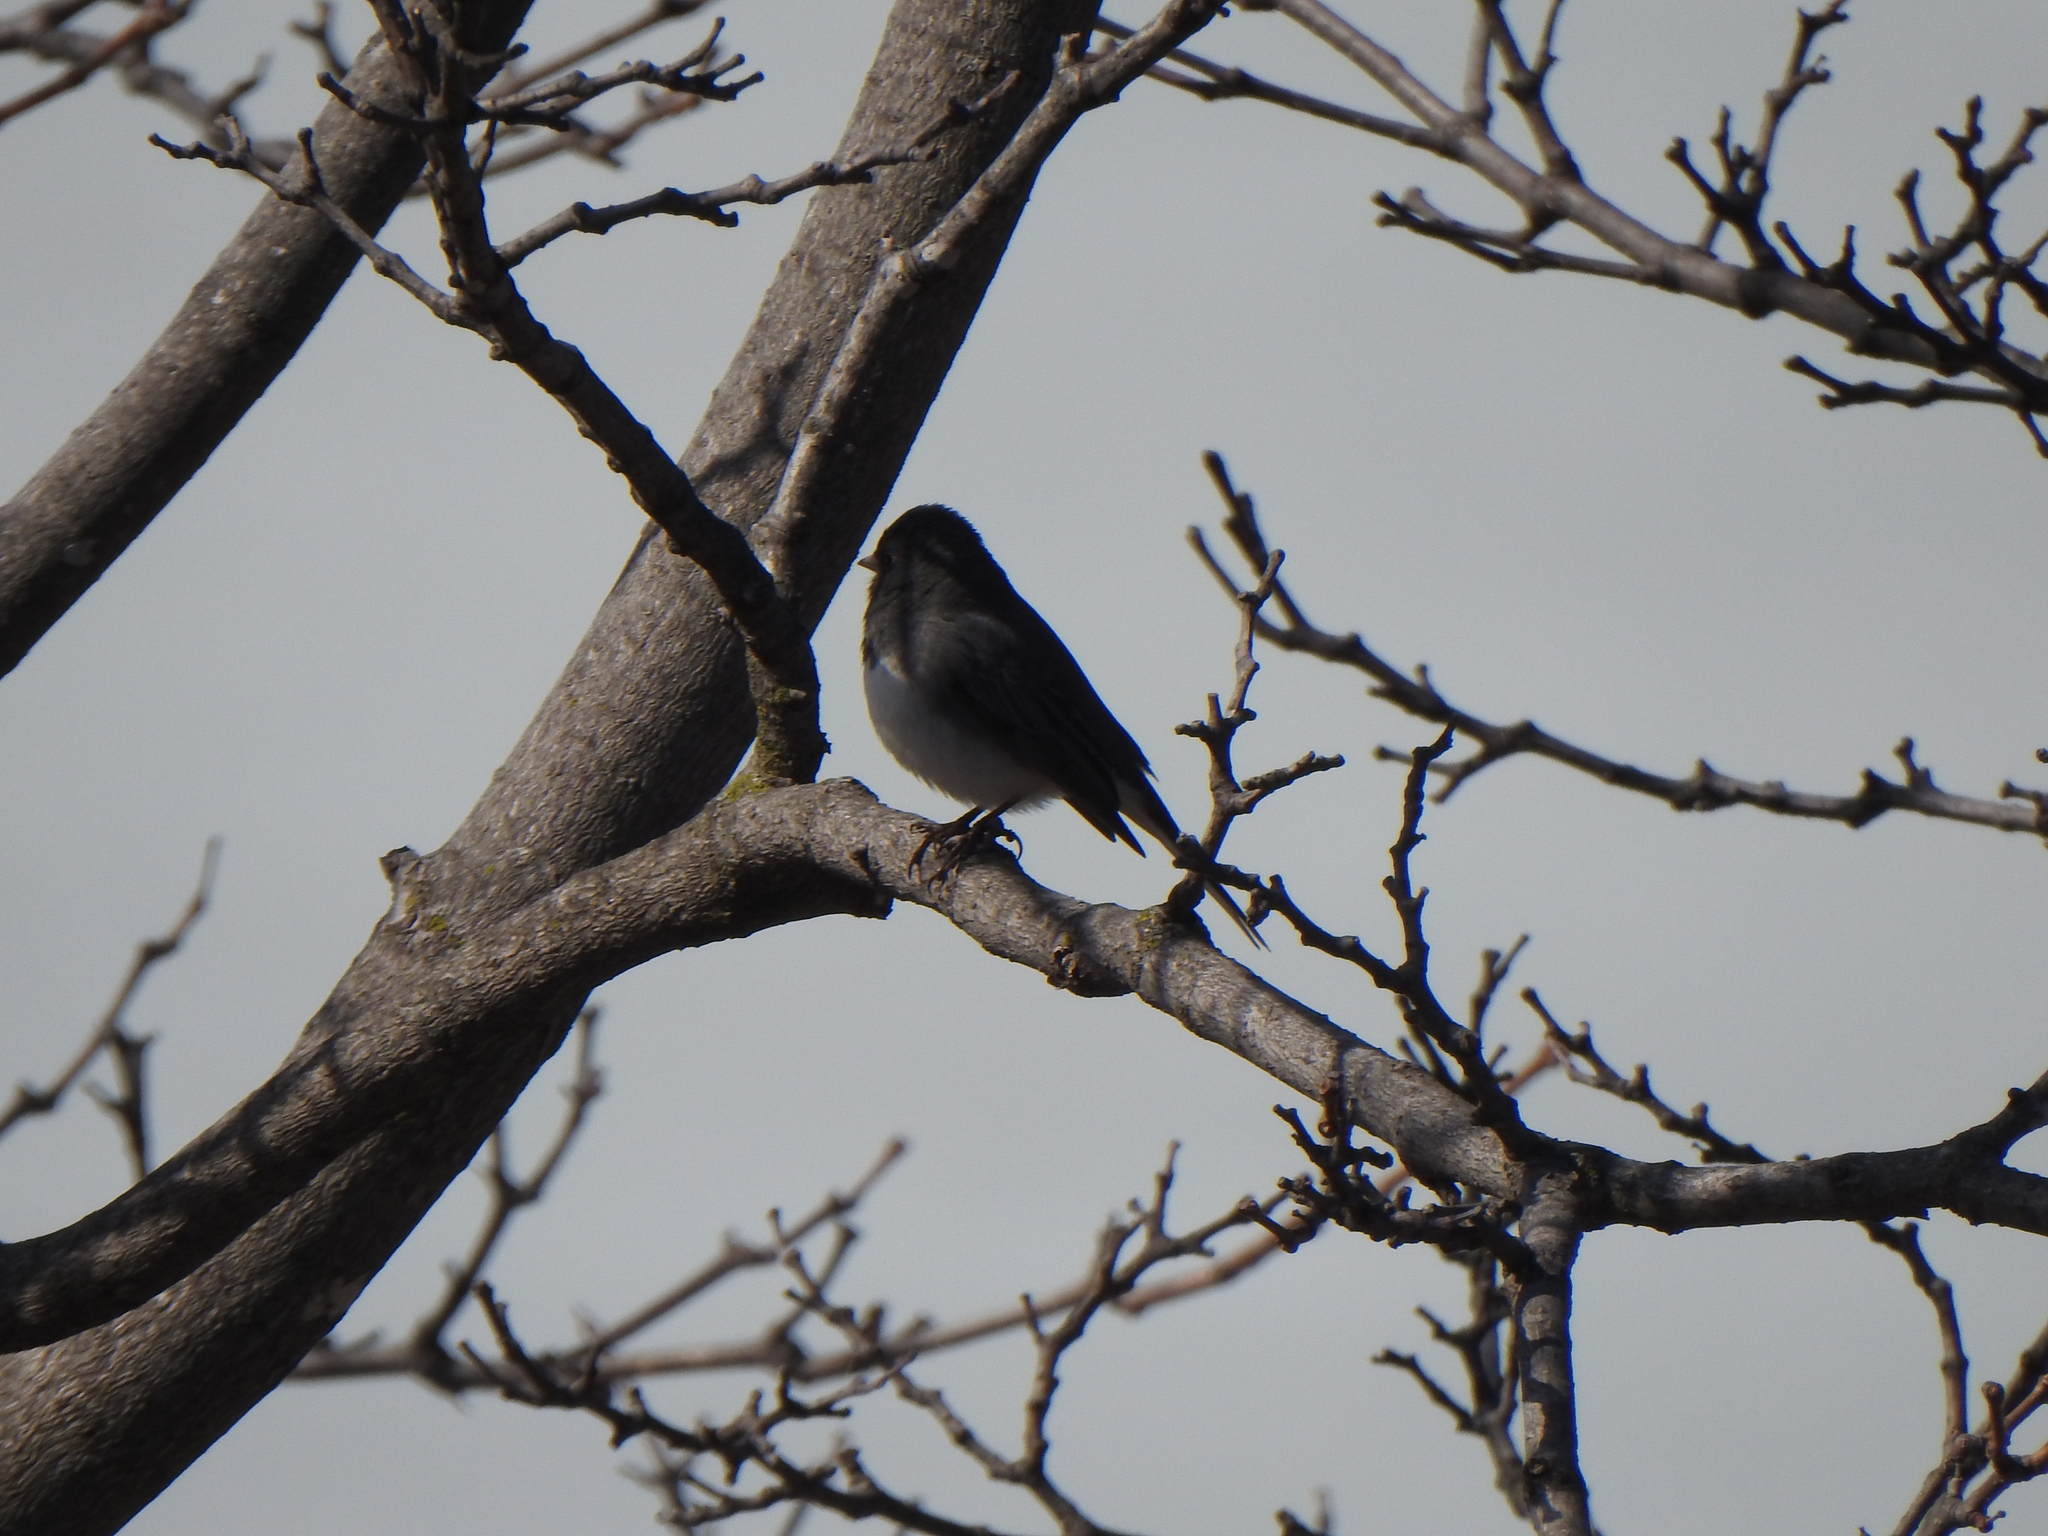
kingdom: Animalia
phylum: Chordata
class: Aves
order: Passeriformes
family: Passerellidae
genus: Junco
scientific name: Junco hyemalis
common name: Dark-eyed junco
